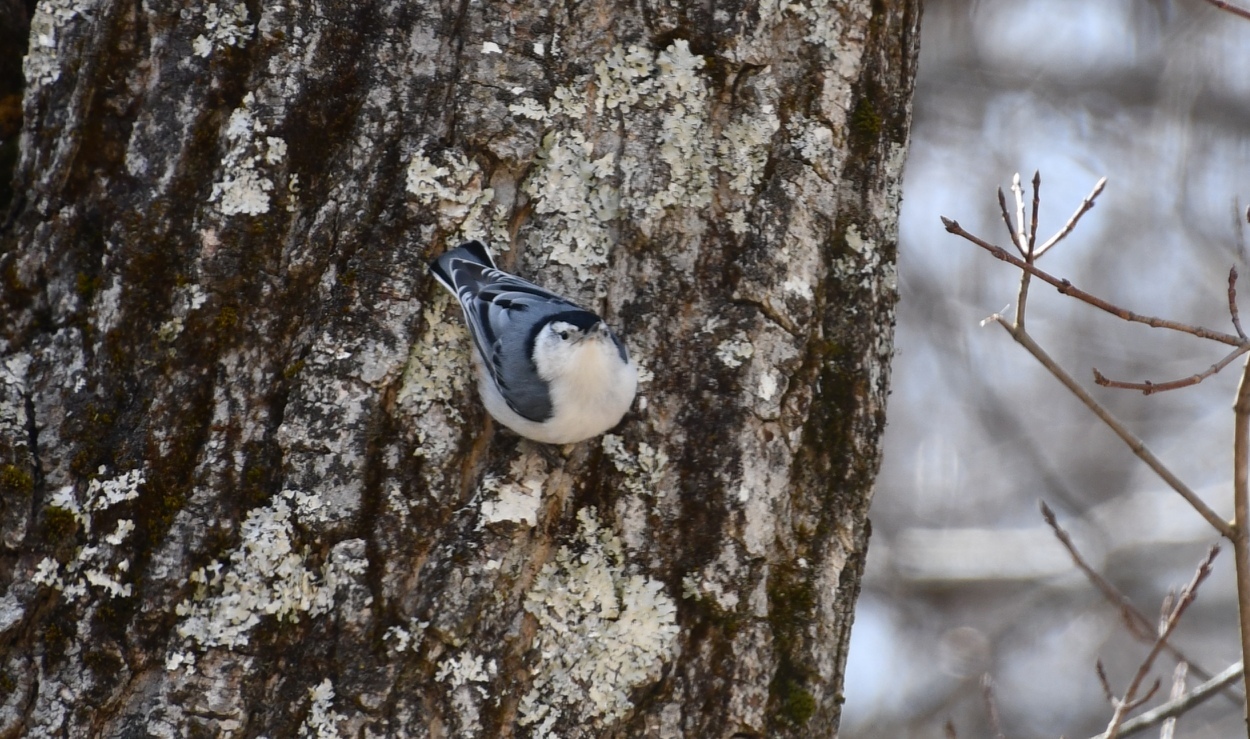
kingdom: Animalia
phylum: Chordata
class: Aves
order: Passeriformes
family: Sittidae
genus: Sitta
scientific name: Sitta carolinensis
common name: White-breasted nuthatch
